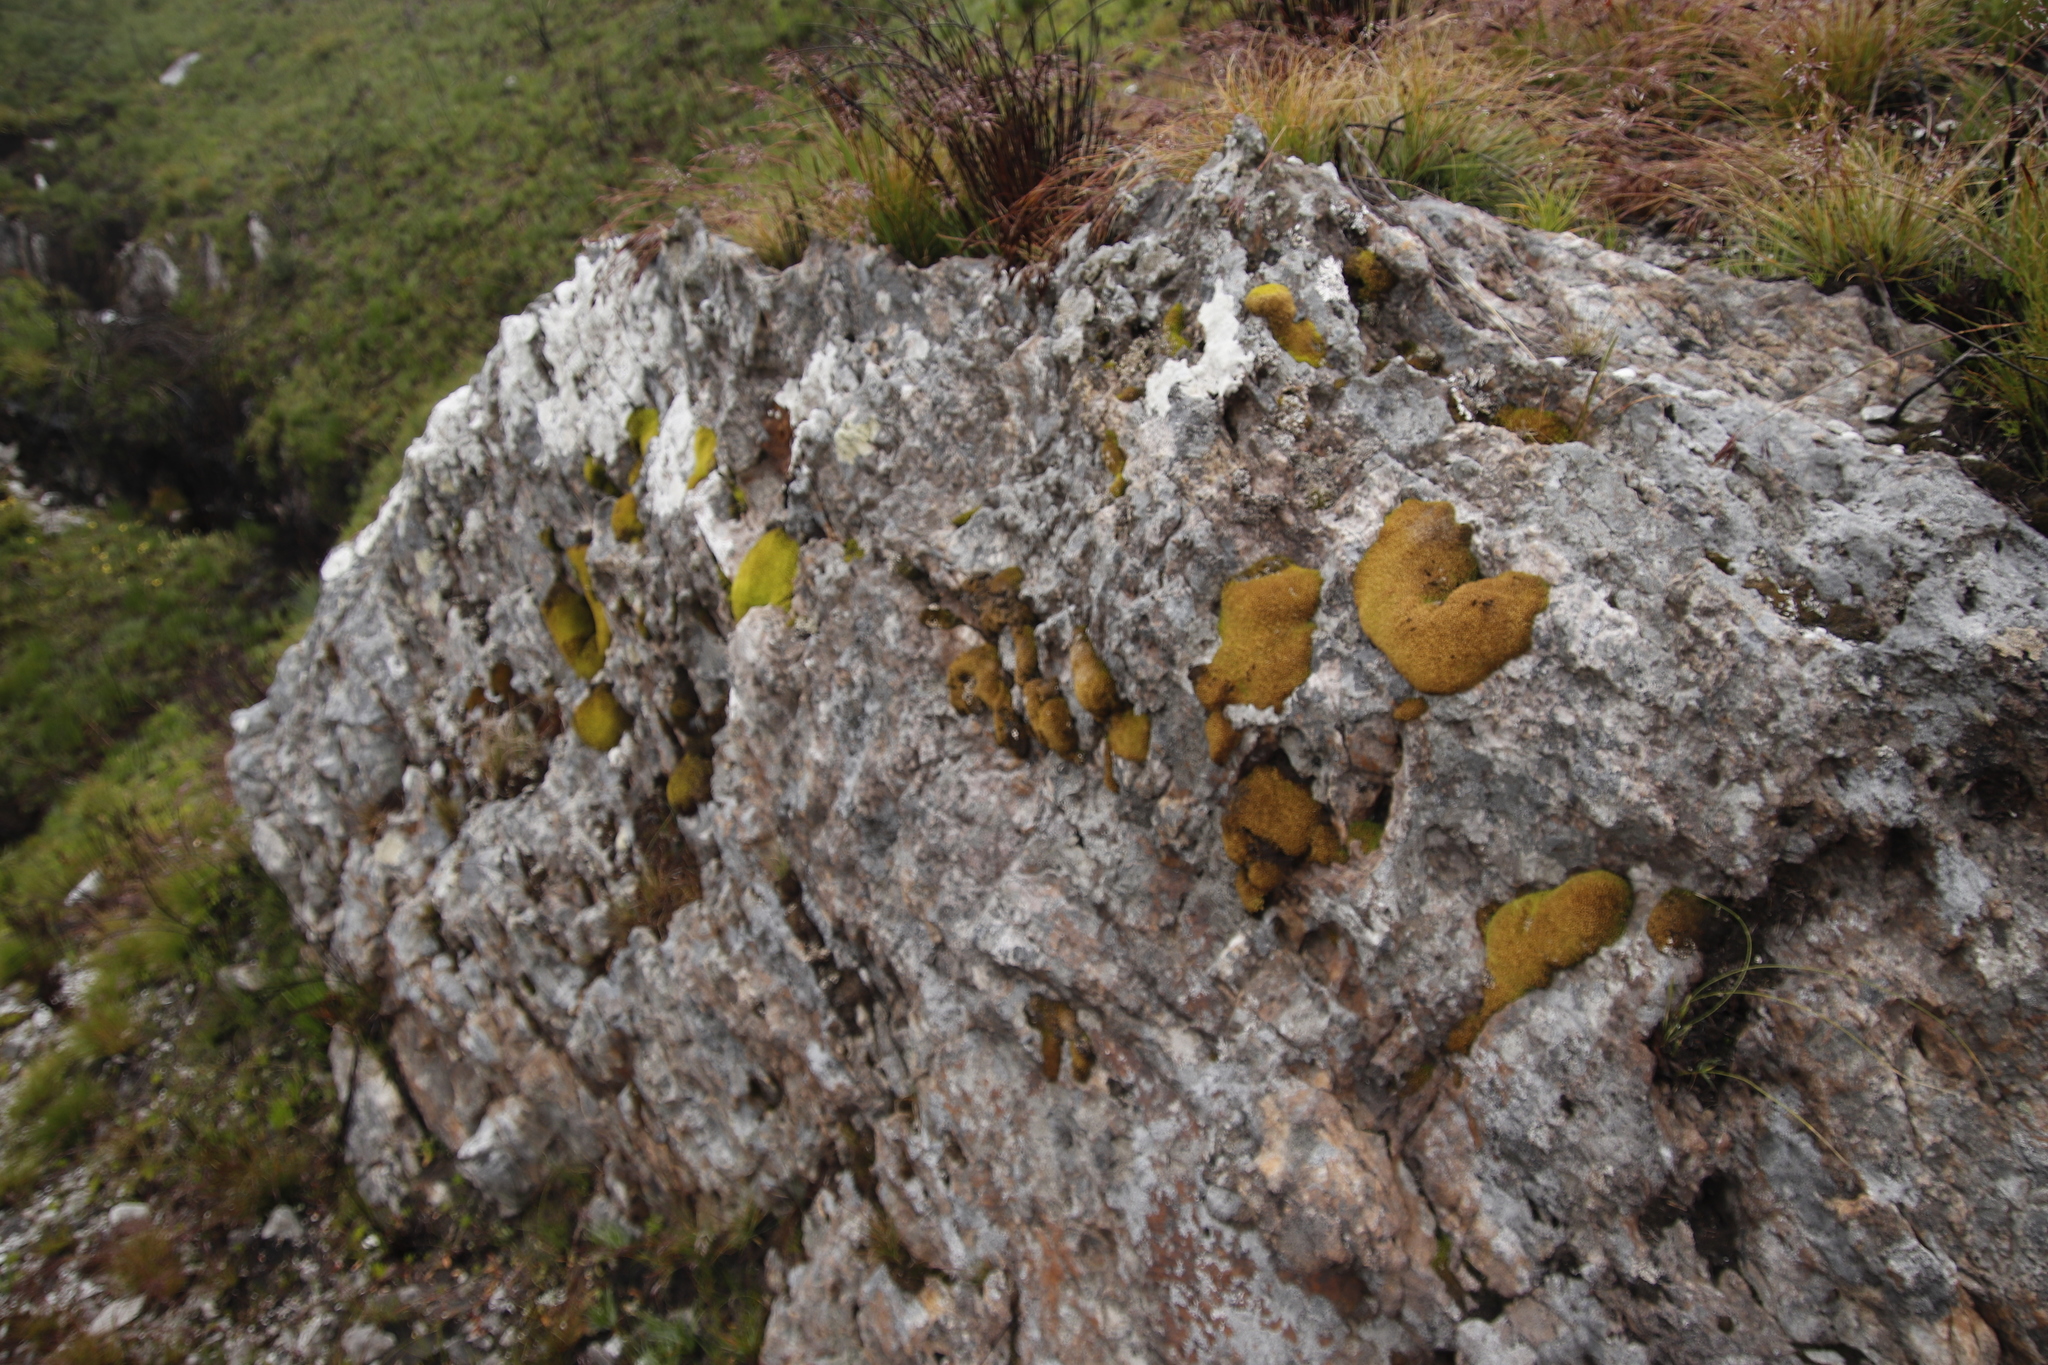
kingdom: Plantae
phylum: Bryophyta
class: Bryopsida
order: Dicranales
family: Hypodontiaceae
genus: Hypodontium
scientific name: Hypodontium pomiforme
